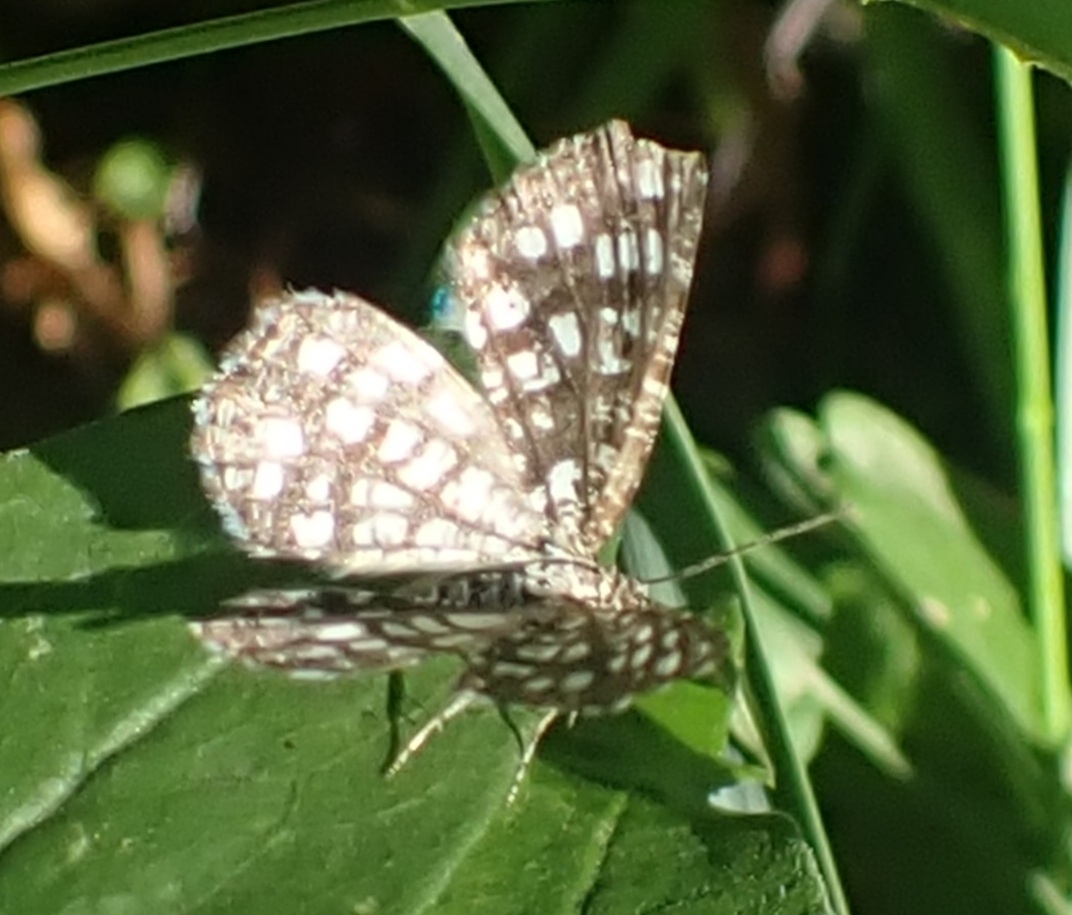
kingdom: Animalia
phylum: Arthropoda
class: Insecta
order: Lepidoptera
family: Geometridae
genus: Chiasmia
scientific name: Chiasmia clathrata
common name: Latticed heath
